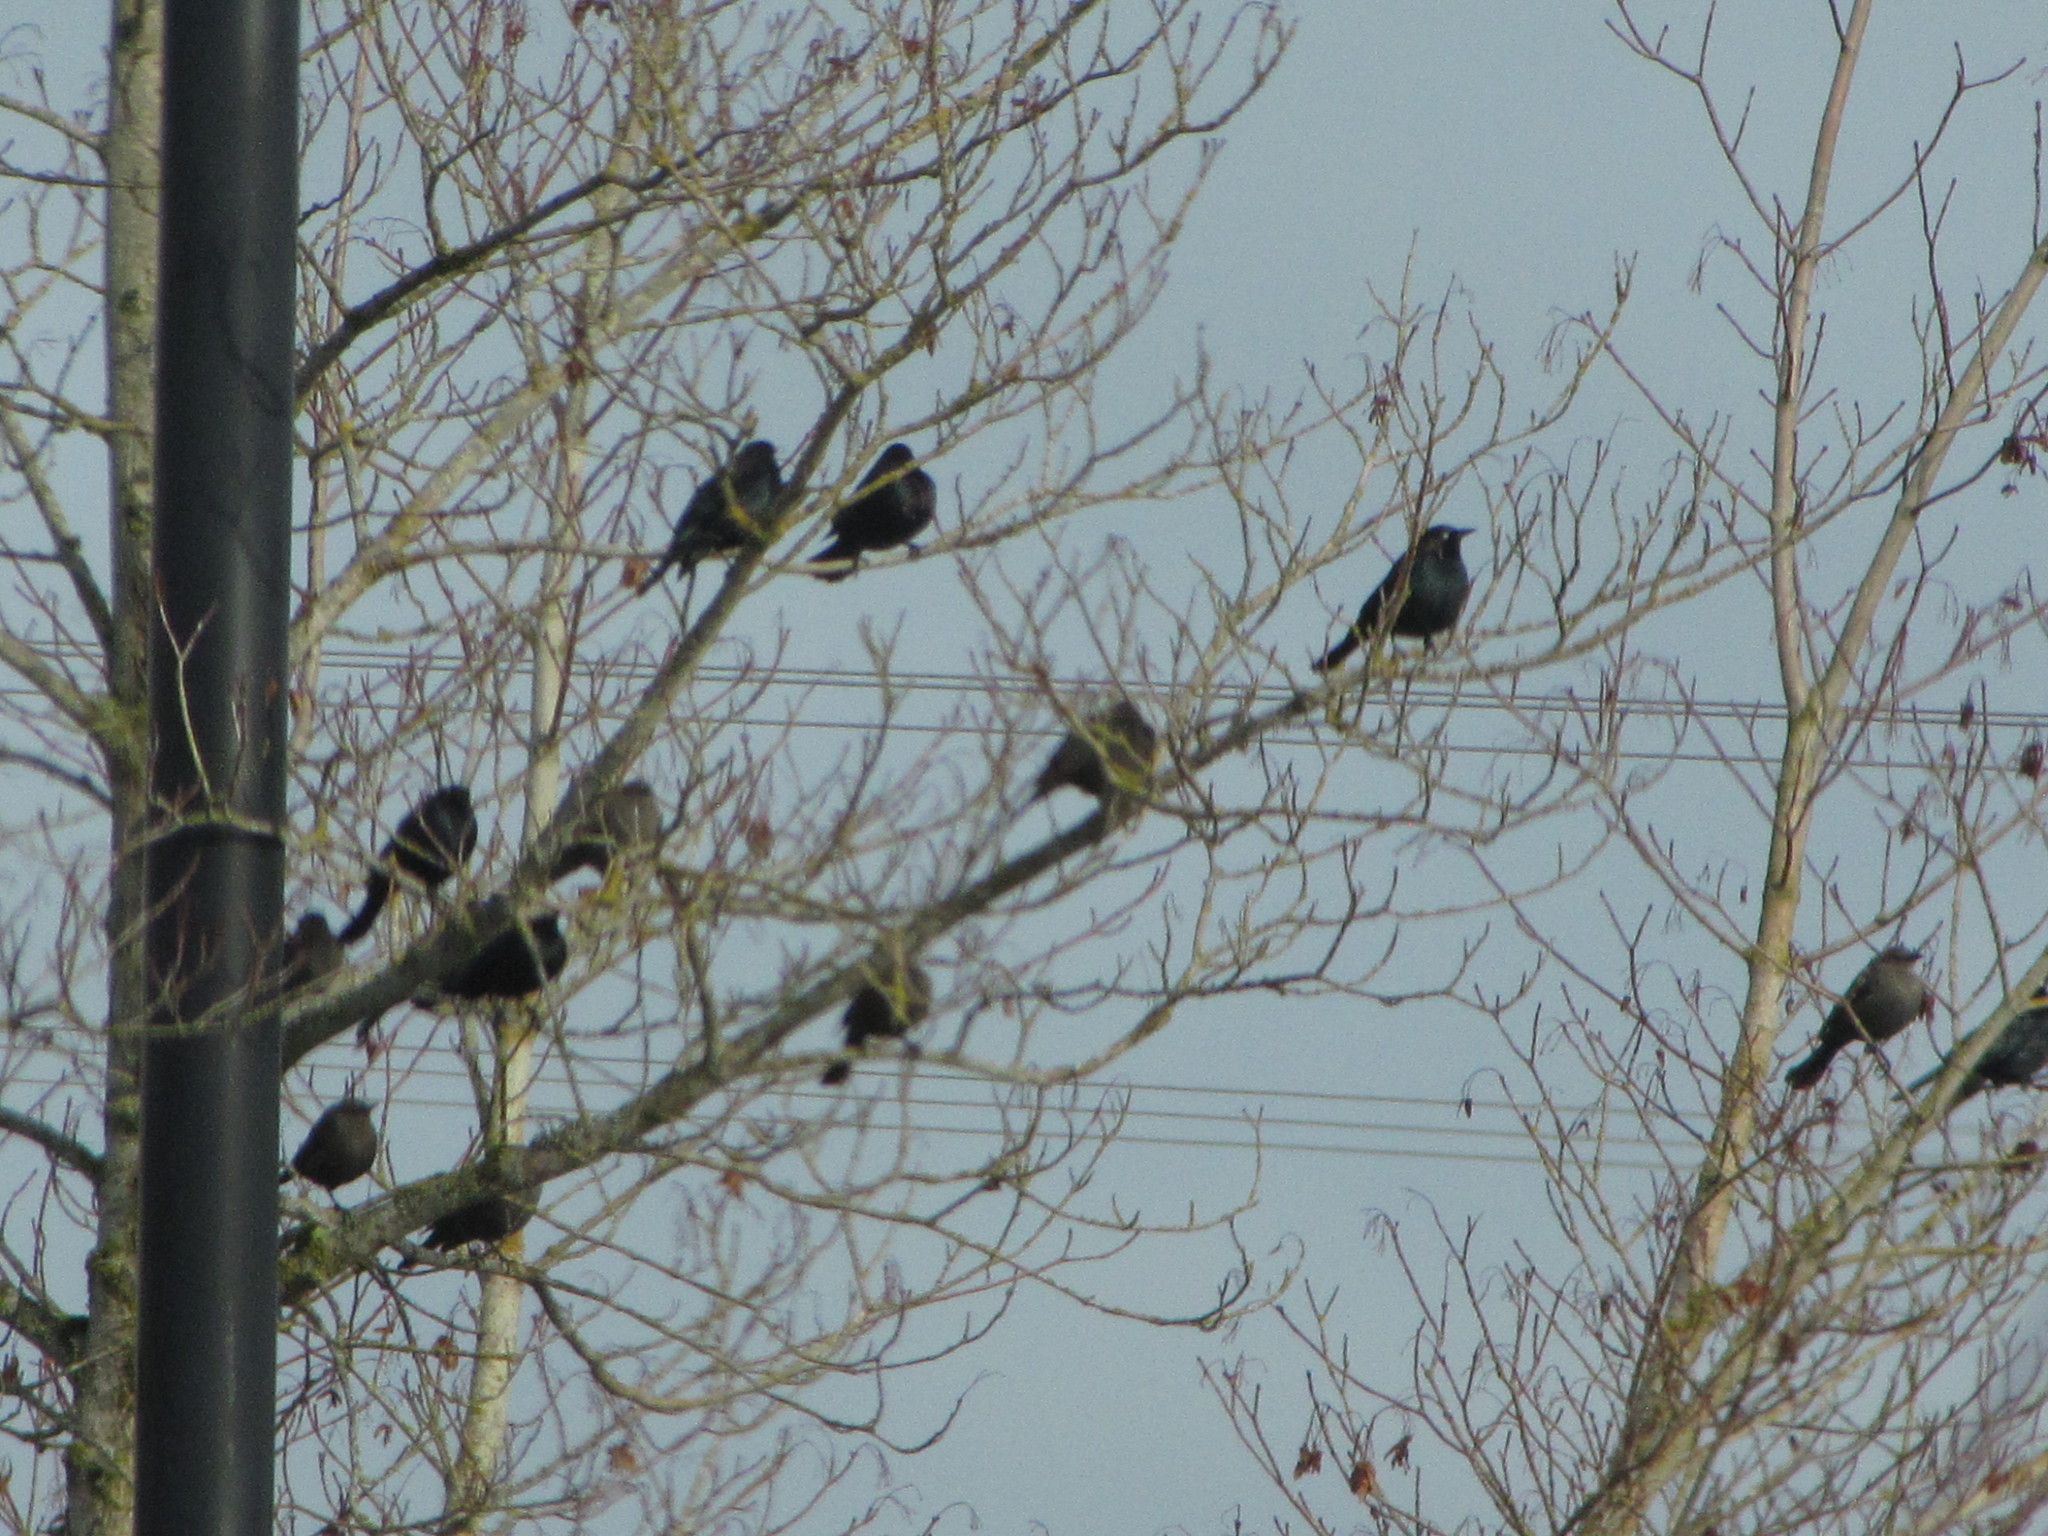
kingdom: Animalia
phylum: Chordata
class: Aves
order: Passeriformes
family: Icteridae
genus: Euphagus
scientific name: Euphagus cyanocephalus
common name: Brewer's blackbird
